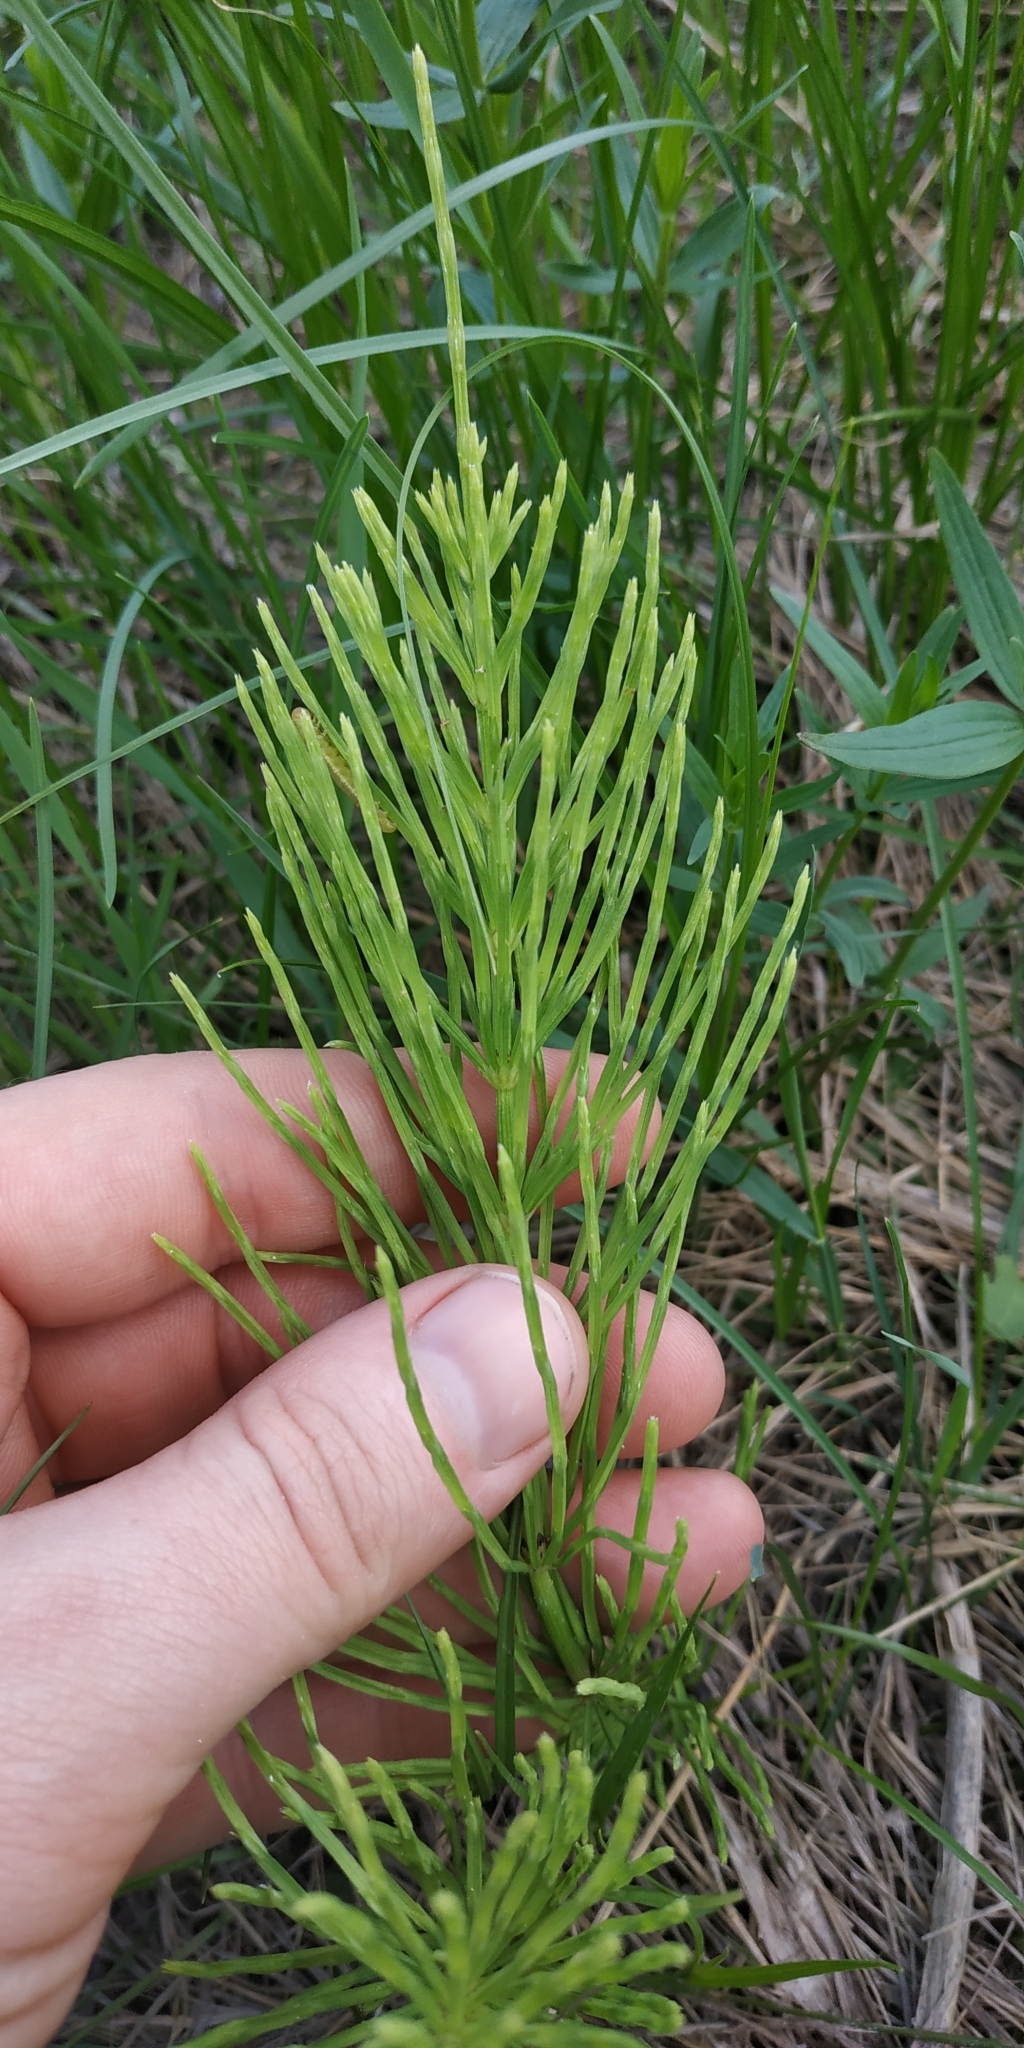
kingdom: Plantae
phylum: Tracheophyta
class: Polypodiopsida
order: Equisetales
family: Equisetaceae
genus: Equisetum
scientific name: Equisetum arvense
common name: Field horsetail
